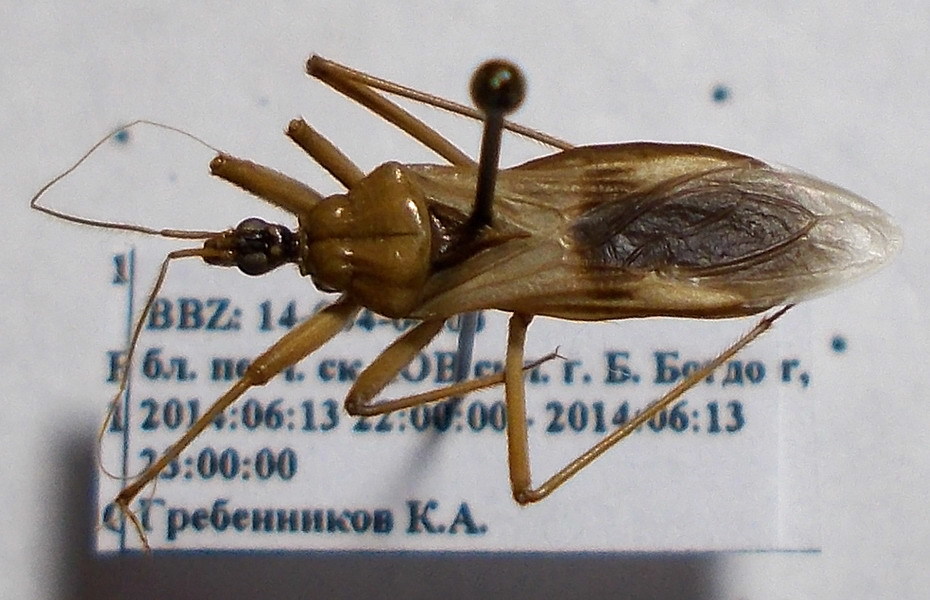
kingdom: Animalia
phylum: Arthropoda
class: Insecta
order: Hemiptera
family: Reduviidae
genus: Reduvius
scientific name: Reduvius testaceus
